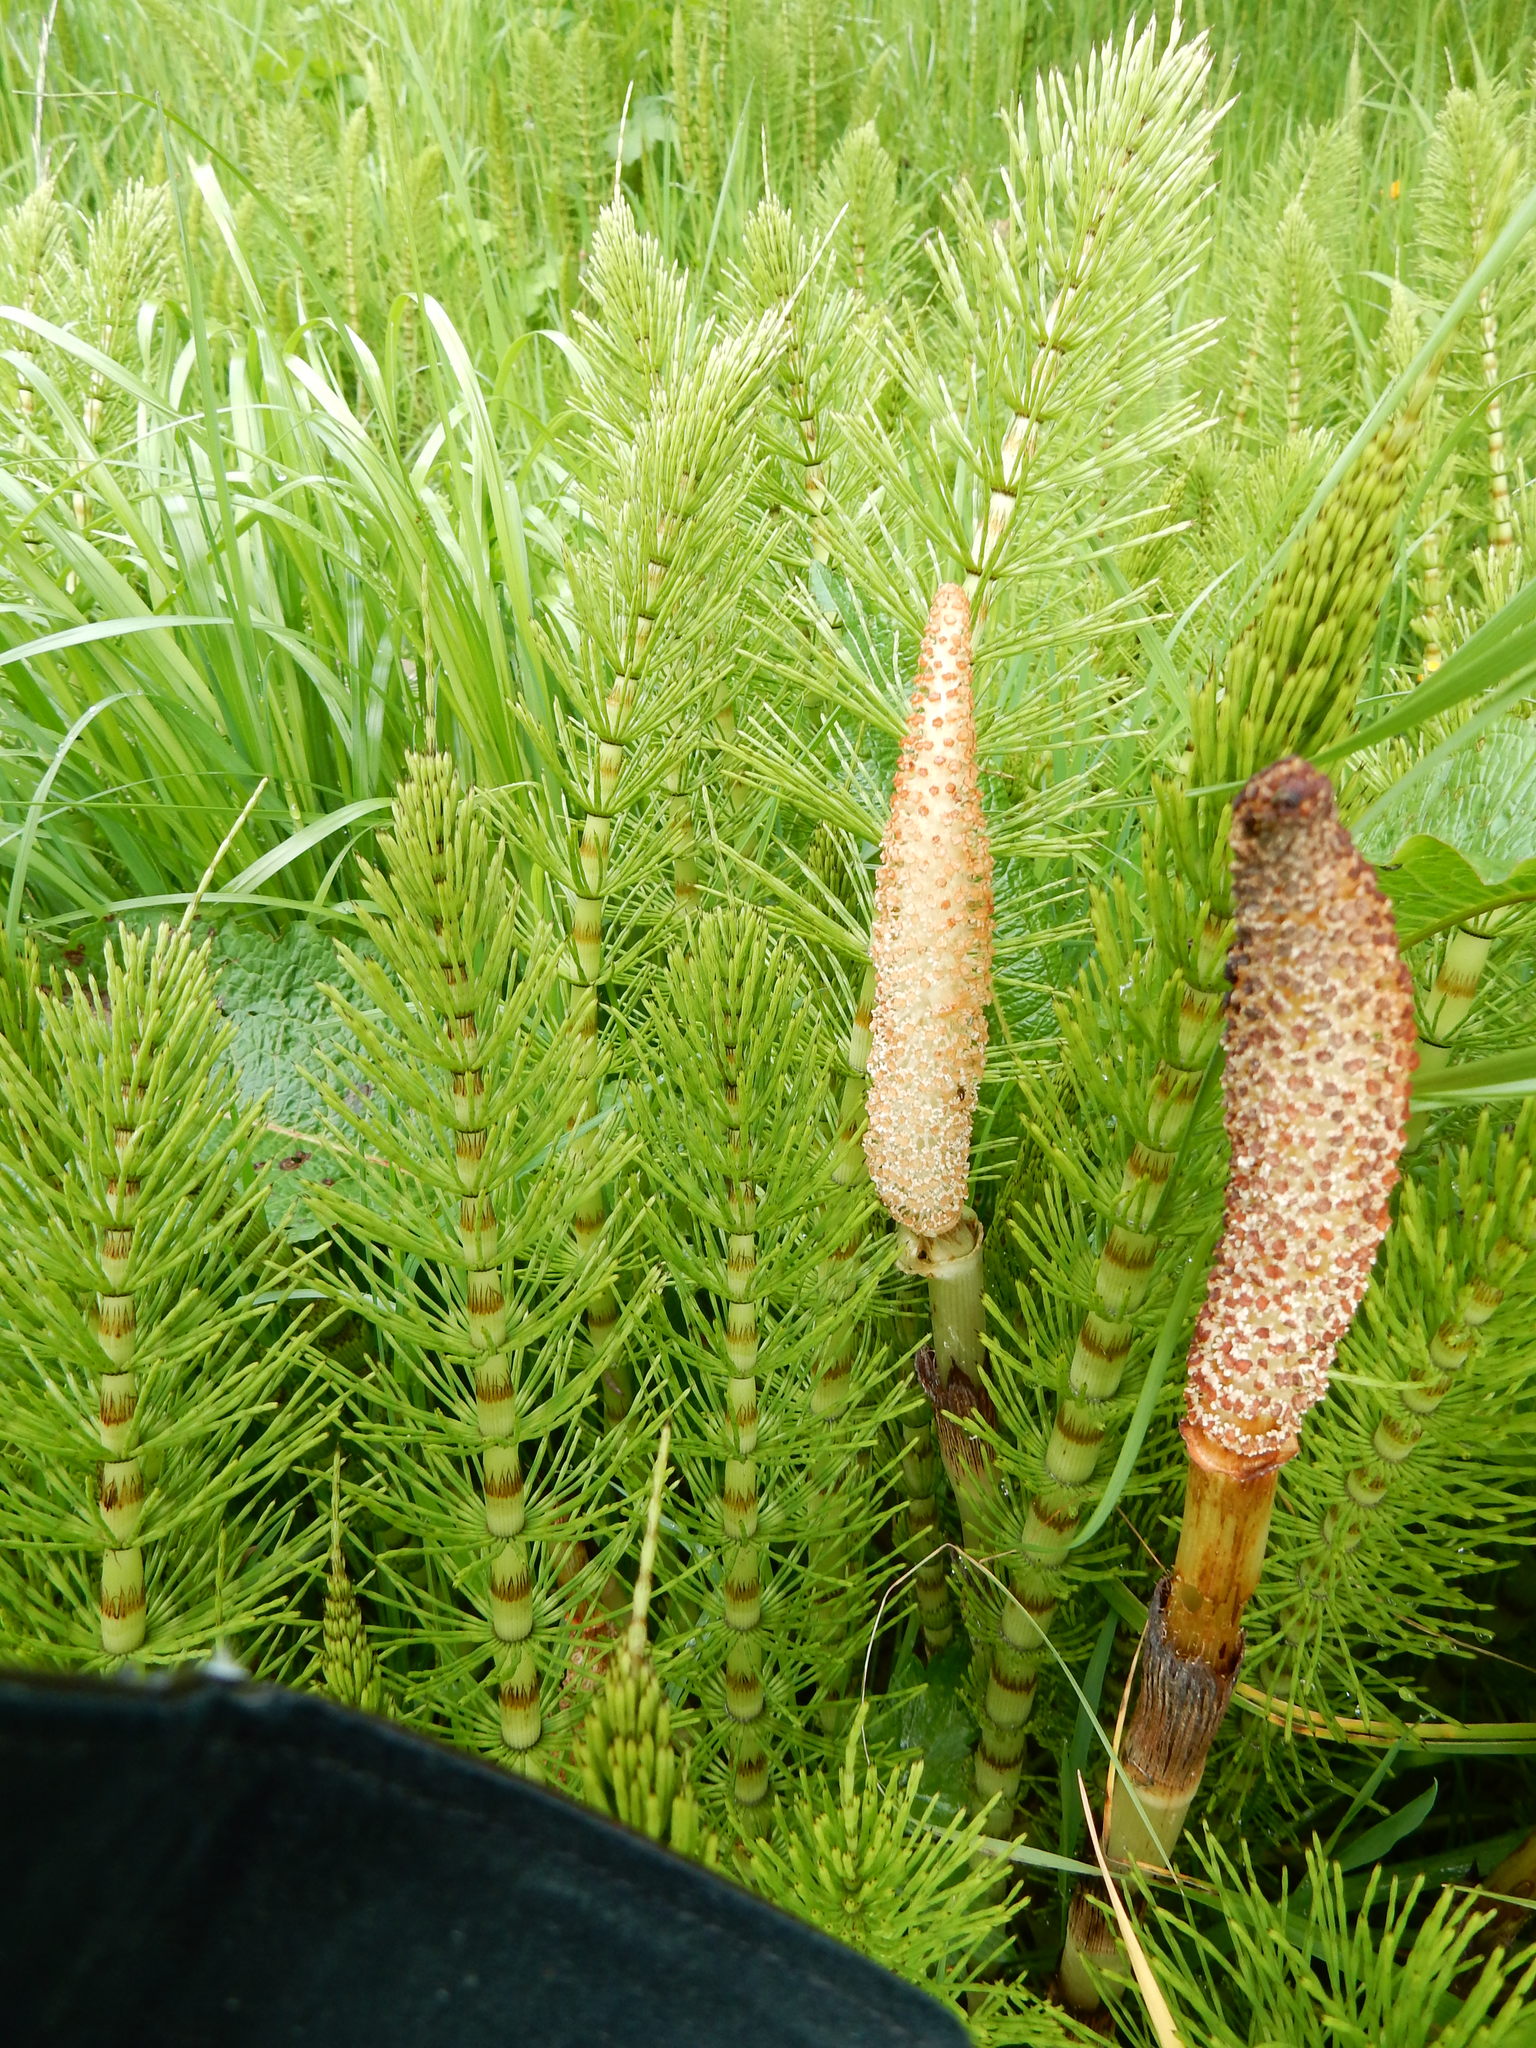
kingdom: Plantae
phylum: Tracheophyta
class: Polypodiopsida
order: Equisetales
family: Equisetaceae
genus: Equisetum
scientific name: Equisetum telmateia
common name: Great horsetail
